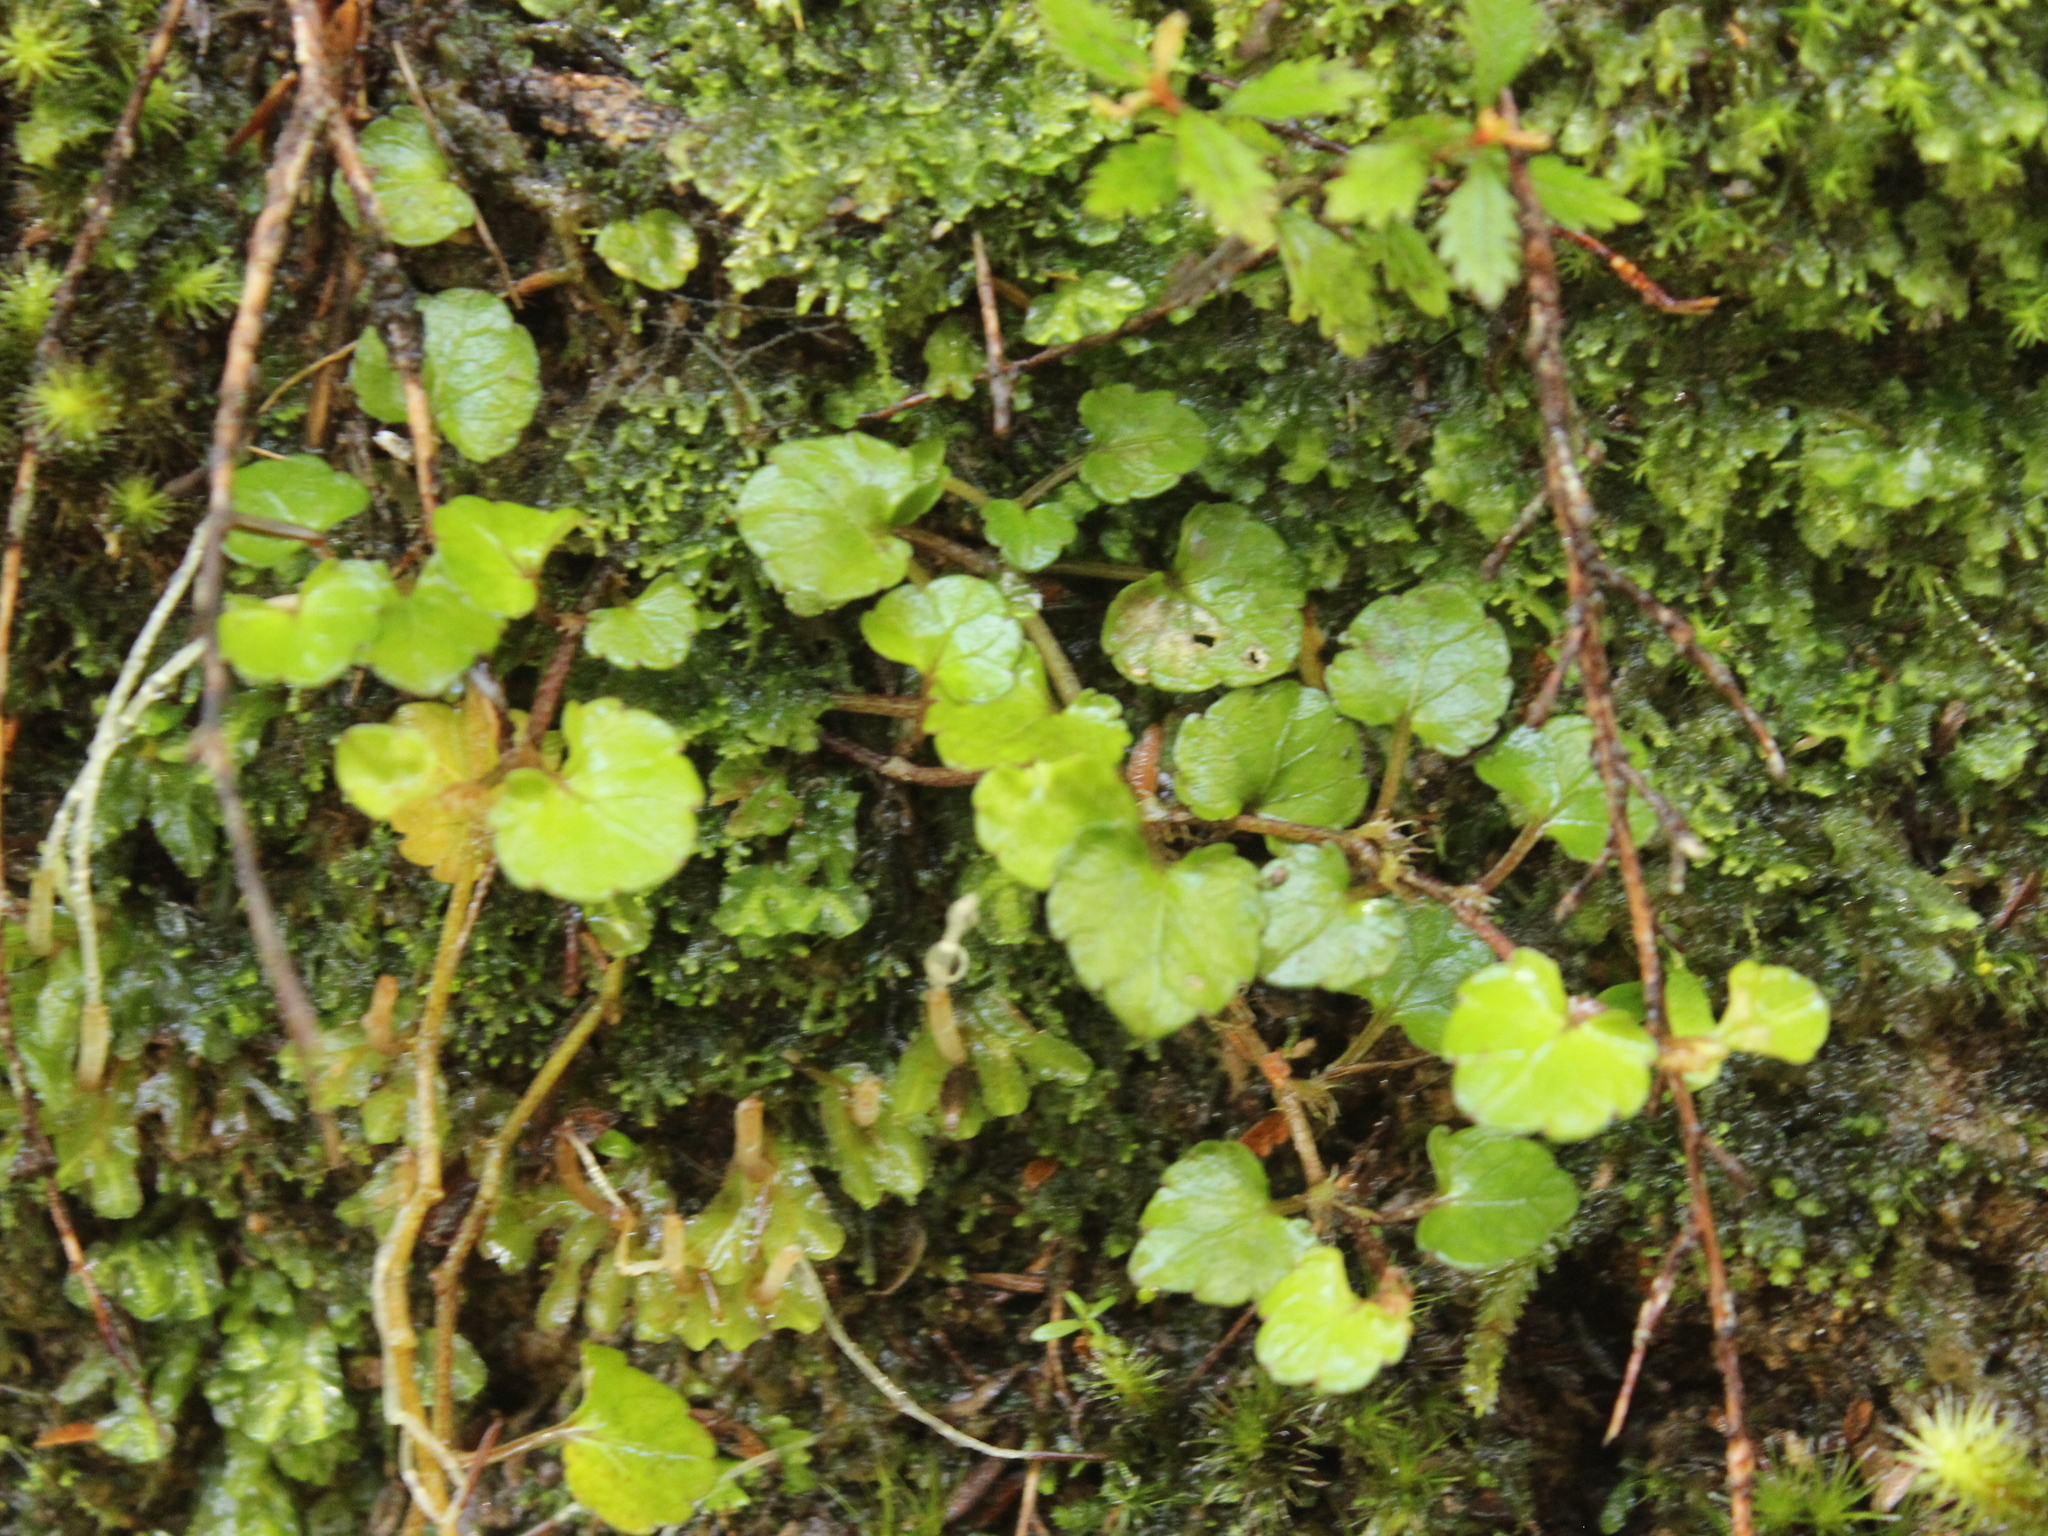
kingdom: Plantae
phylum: Tracheophyta
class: Magnoliopsida
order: Malpighiales
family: Violaceae
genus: Viola
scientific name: Viola filicaulis
